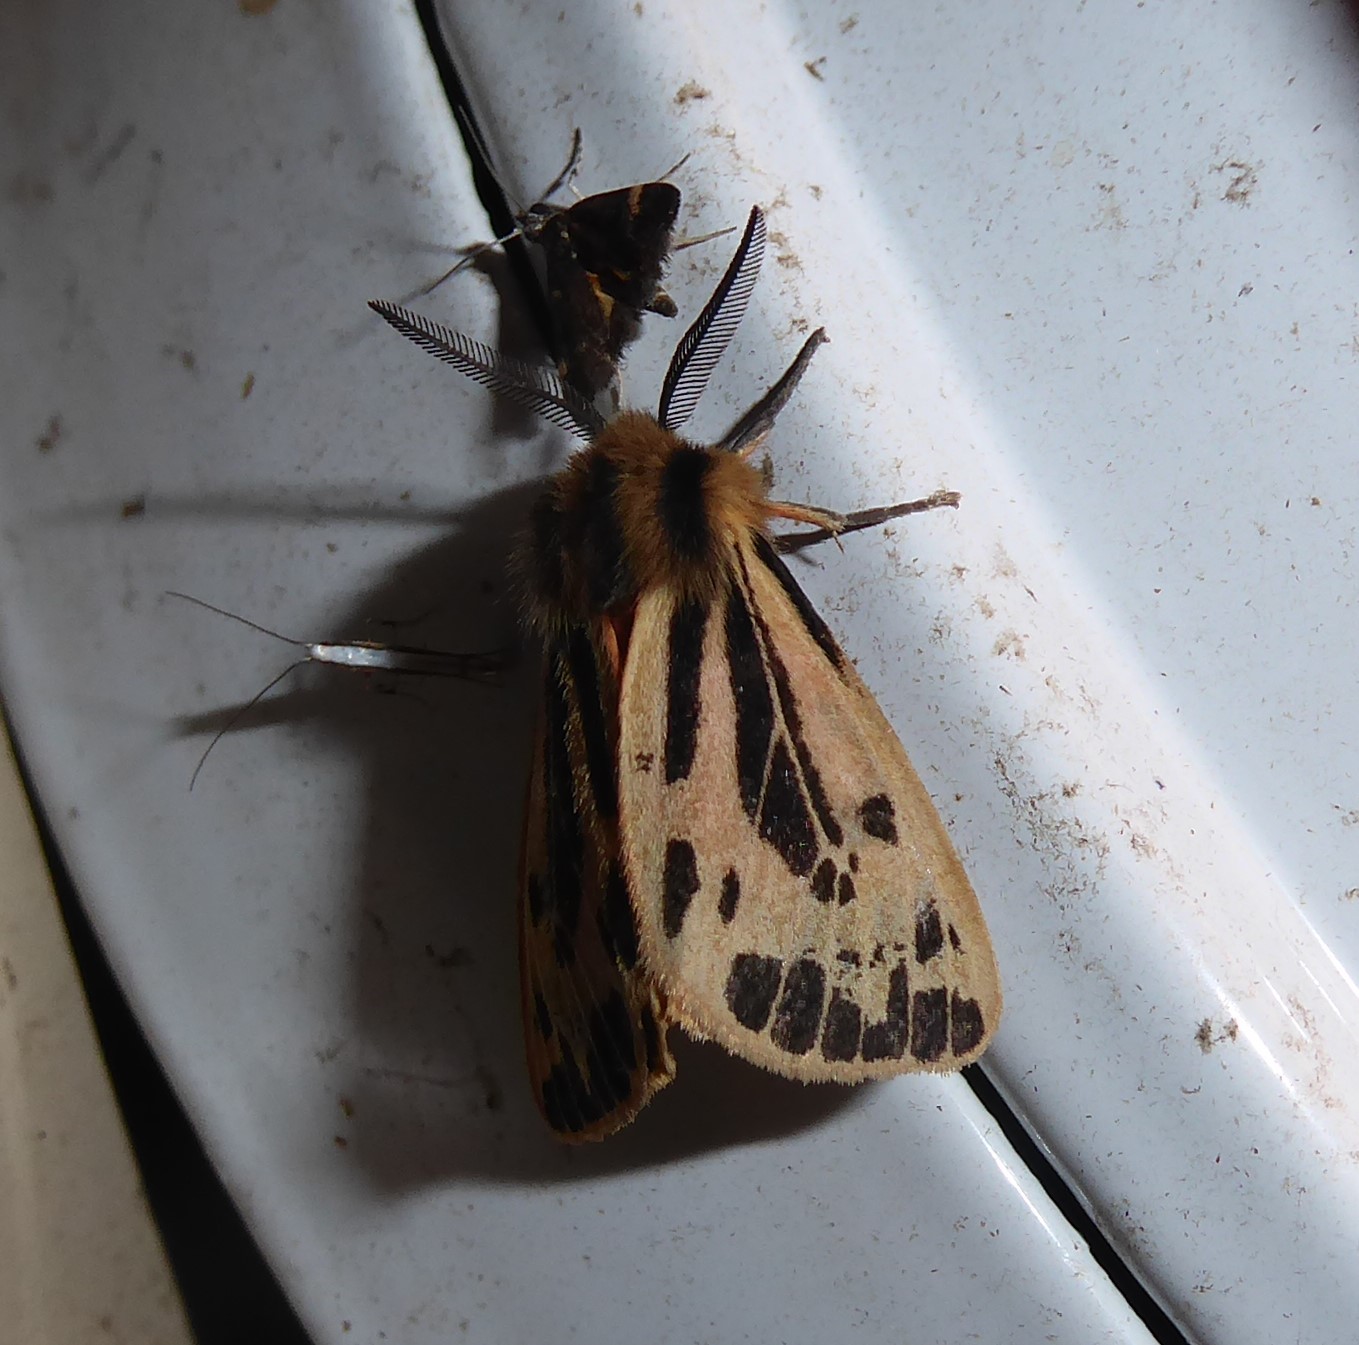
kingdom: Animalia
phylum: Arthropoda
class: Insecta
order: Lepidoptera
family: Erebidae
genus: Ardices
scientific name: Ardices curvata
